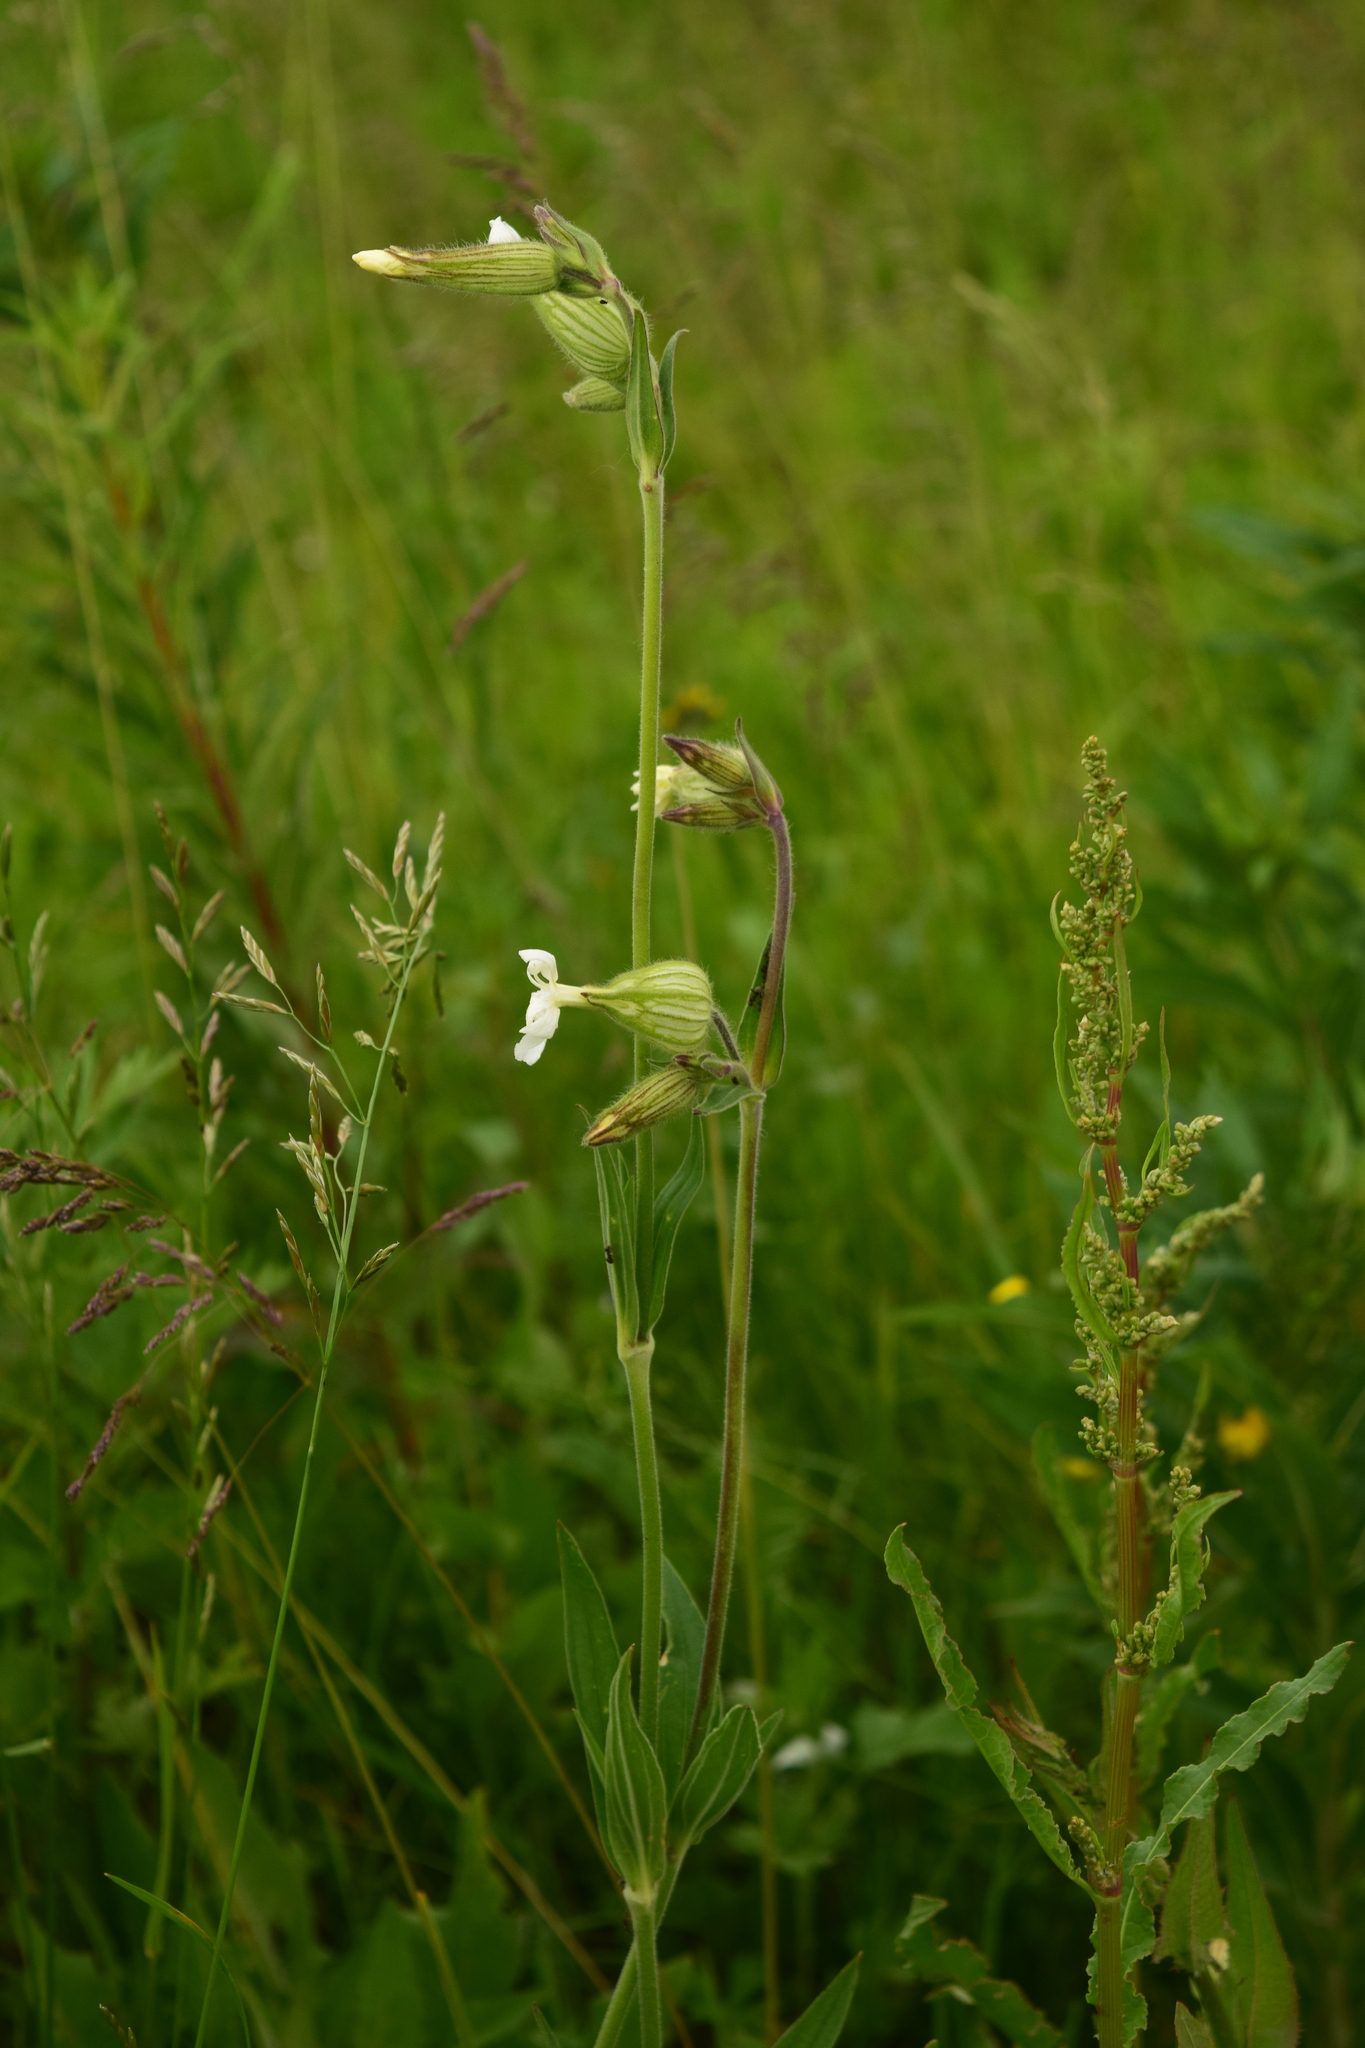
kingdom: Plantae
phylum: Tracheophyta
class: Magnoliopsida
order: Caryophyllales
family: Caryophyllaceae
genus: Silene
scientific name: Silene latifolia
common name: White campion
